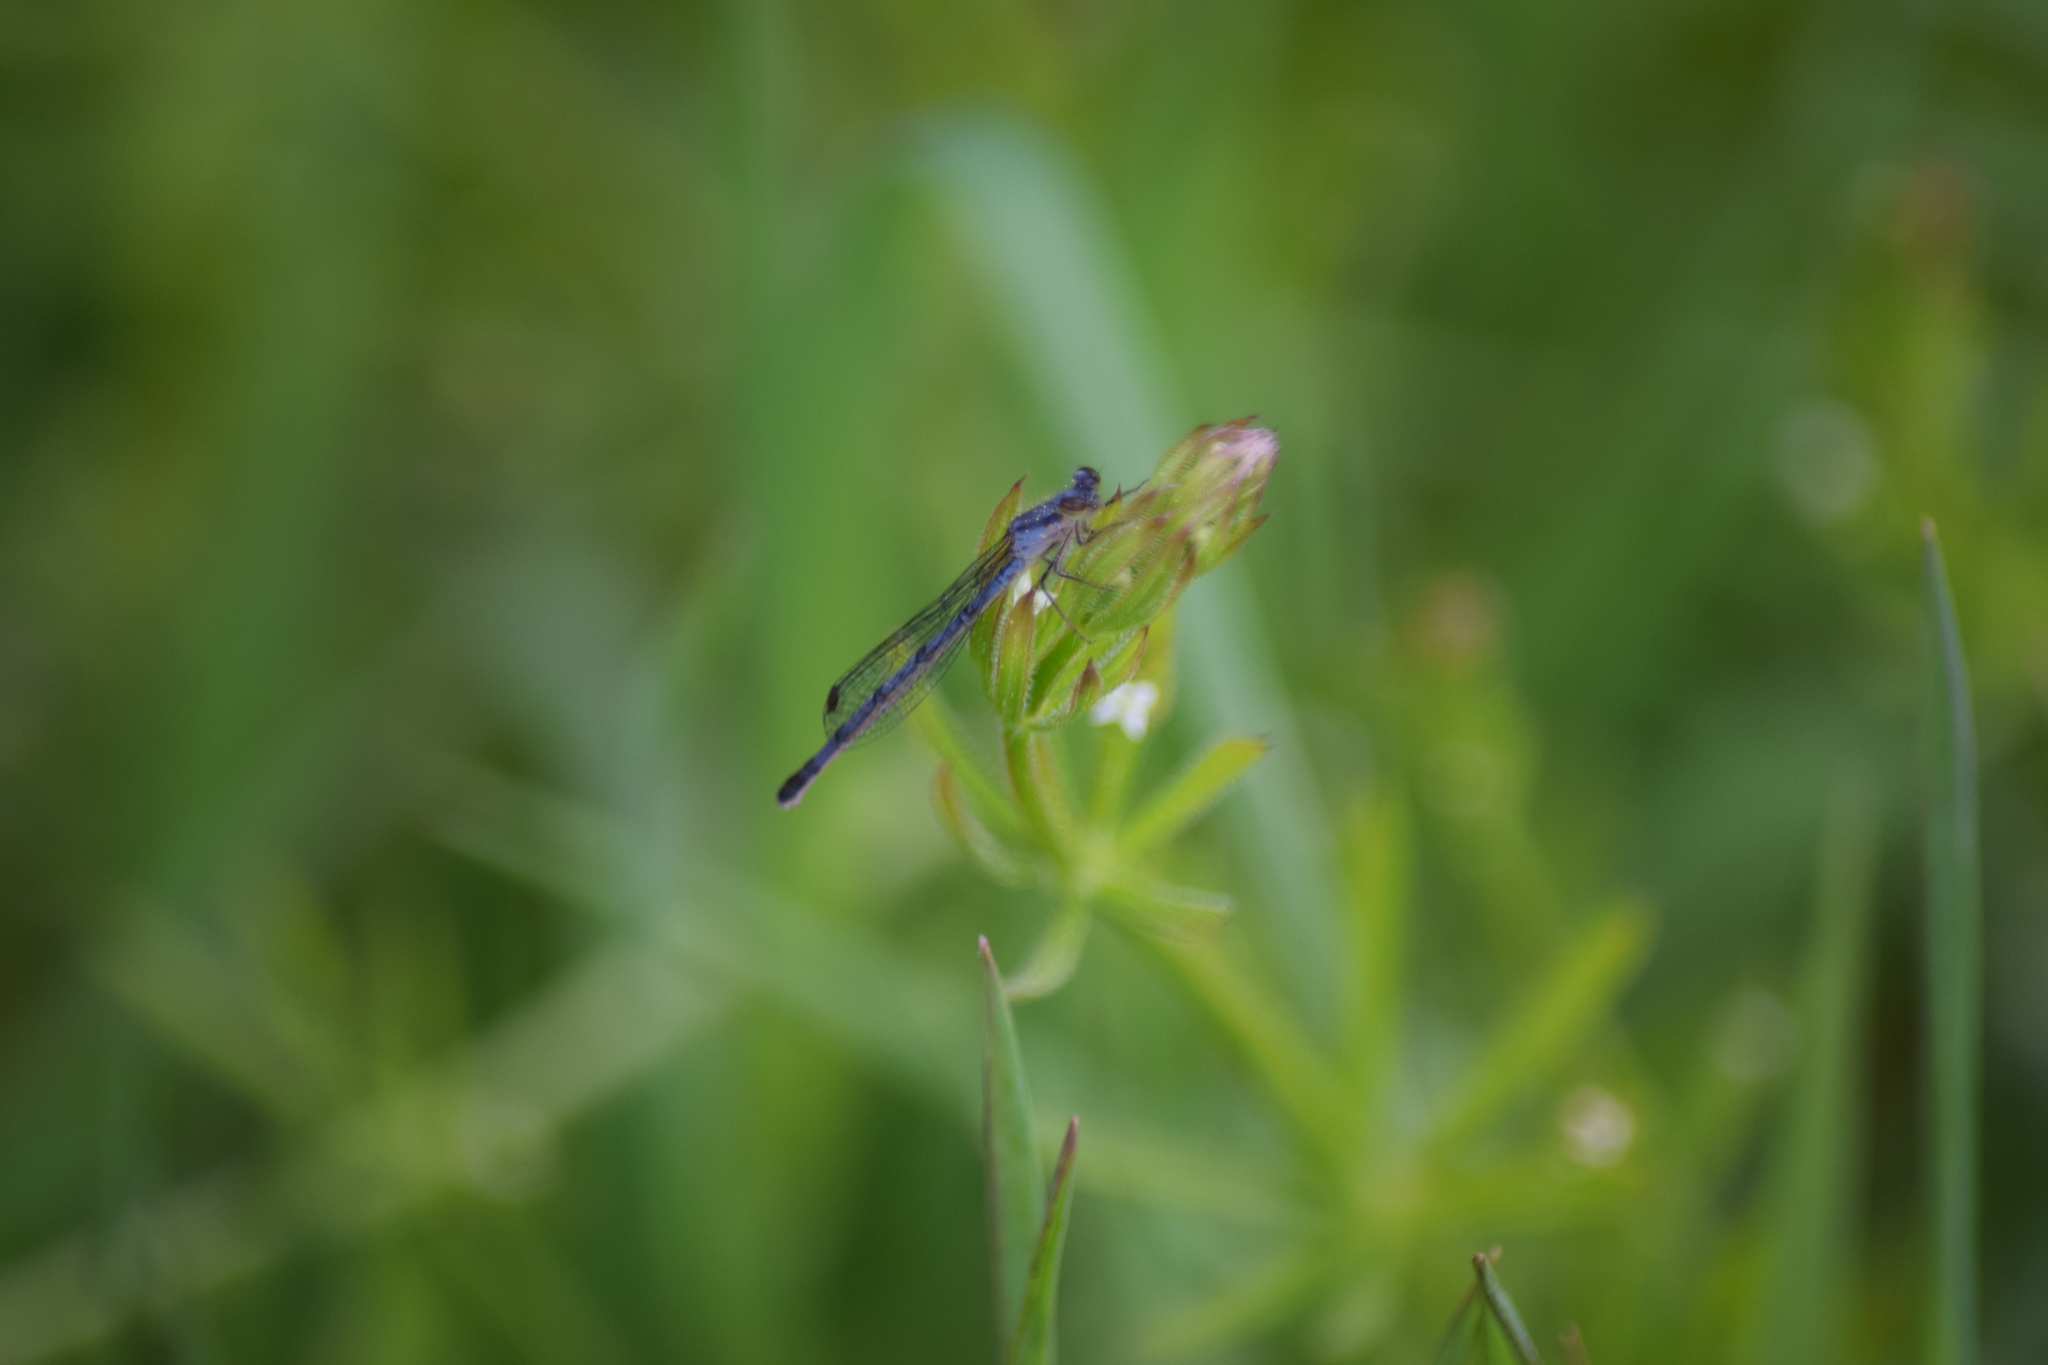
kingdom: Animalia
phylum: Arthropoda
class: Insecta
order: Odonata
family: Coenagrionidae
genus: Ischnura
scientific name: Ischnura posita
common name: Fragile forktail
